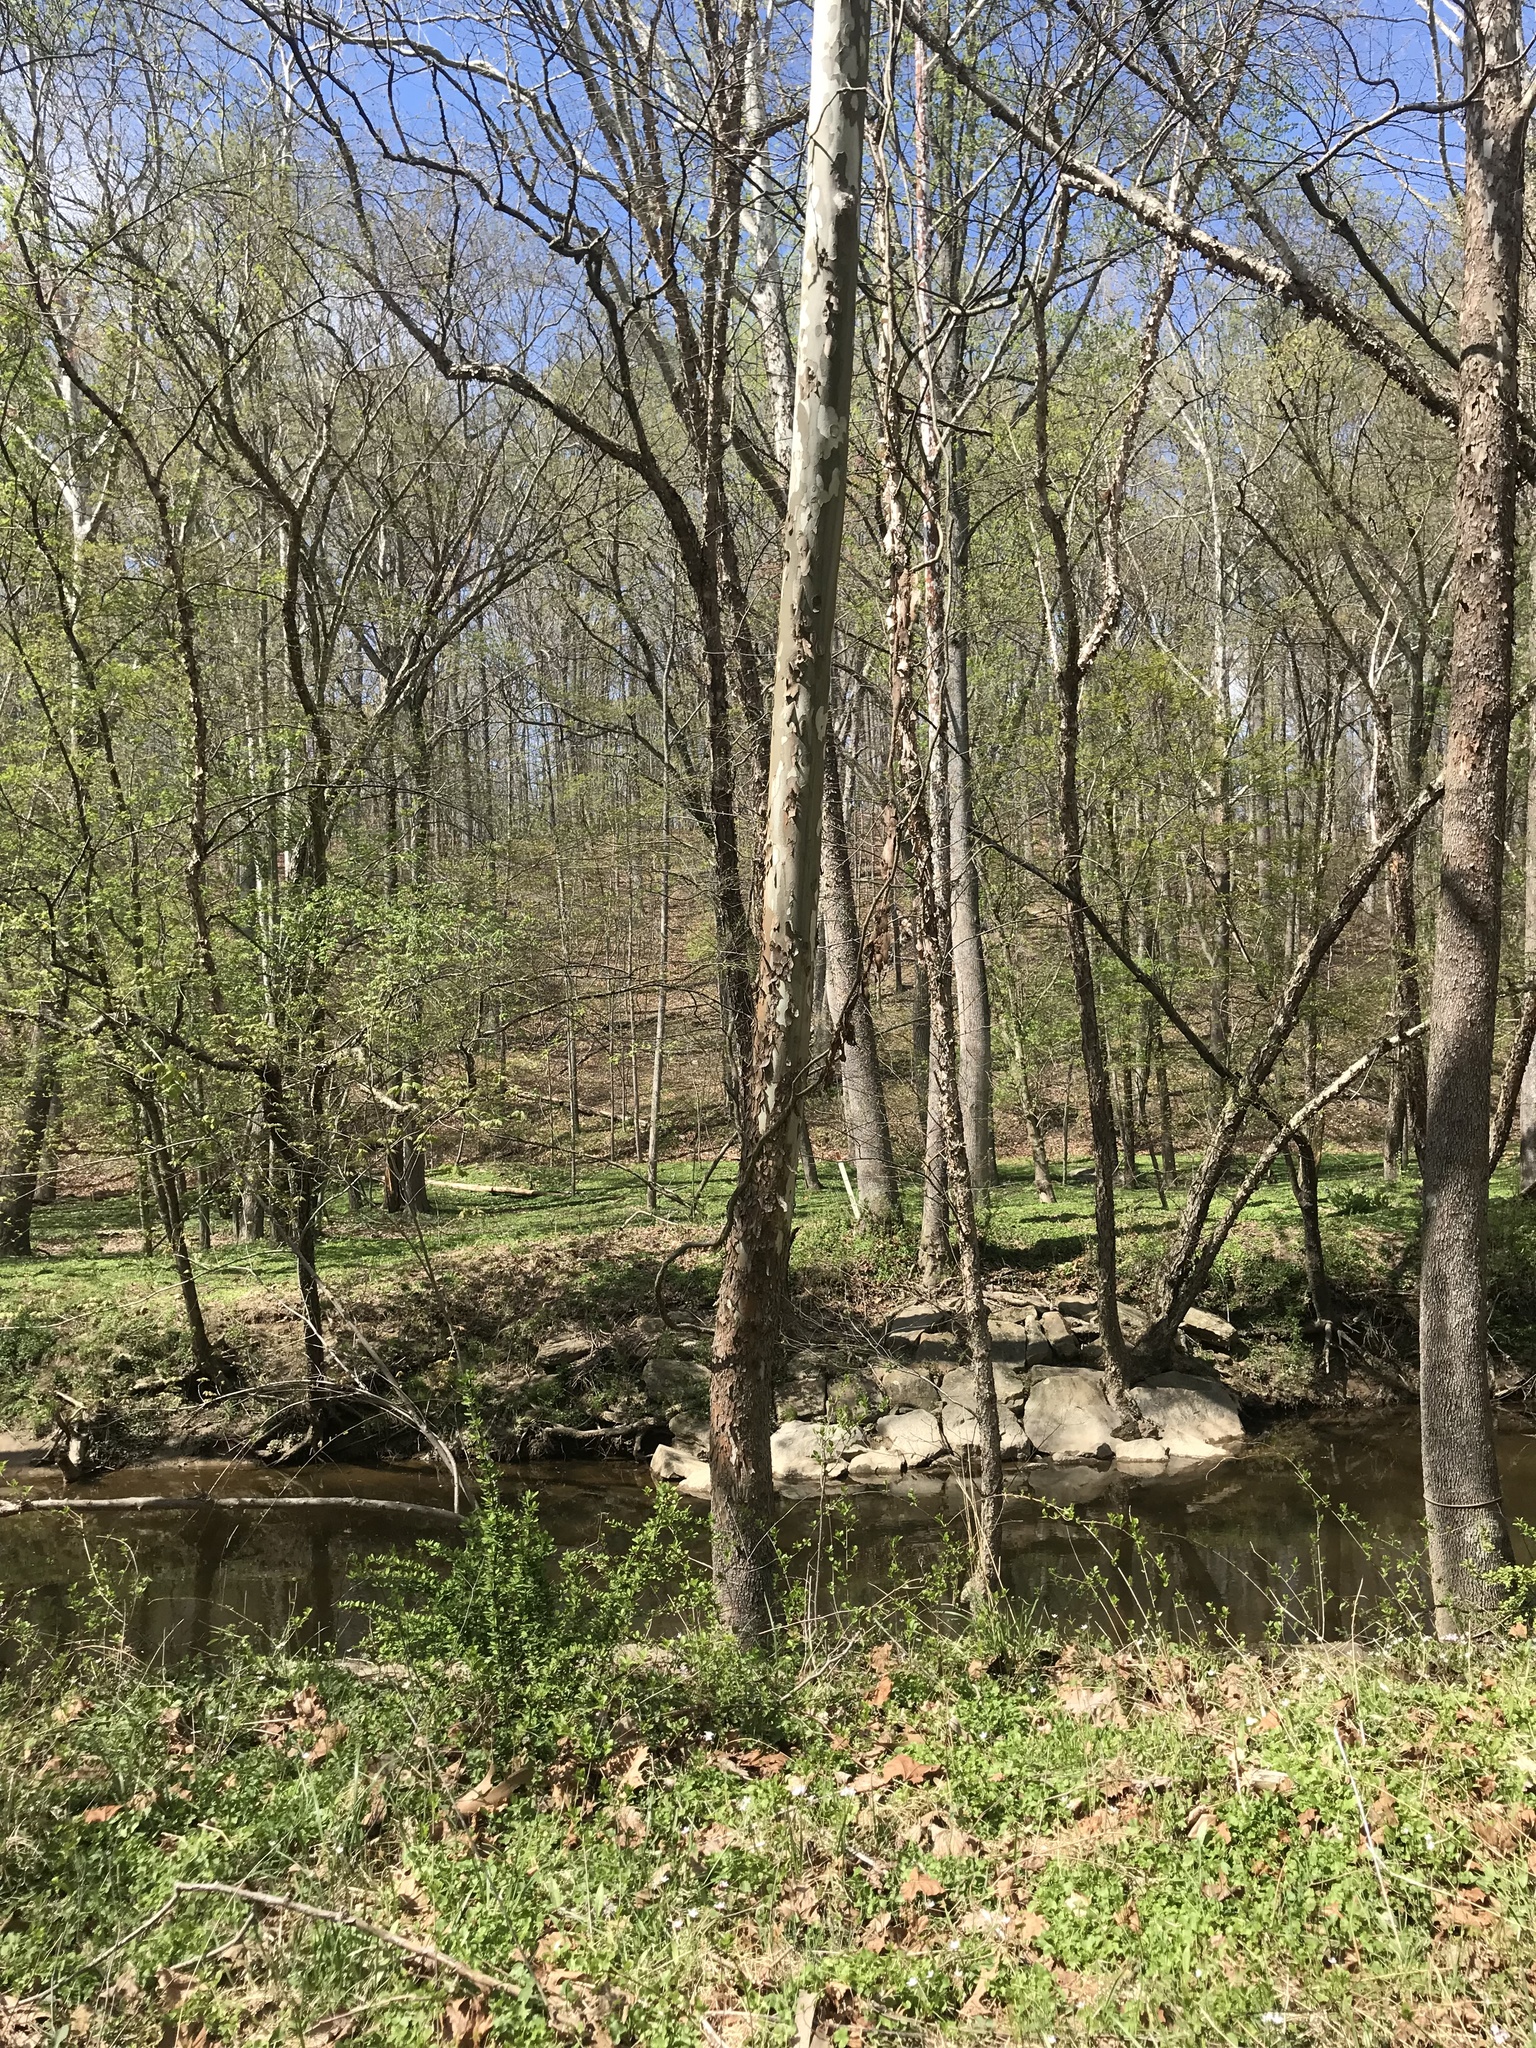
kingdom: Plantae
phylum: Tracheophyta
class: Magnoliopsida
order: Proteales
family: Platanaceae
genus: Platanus
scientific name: Platanus occidentalis
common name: American sycamore
